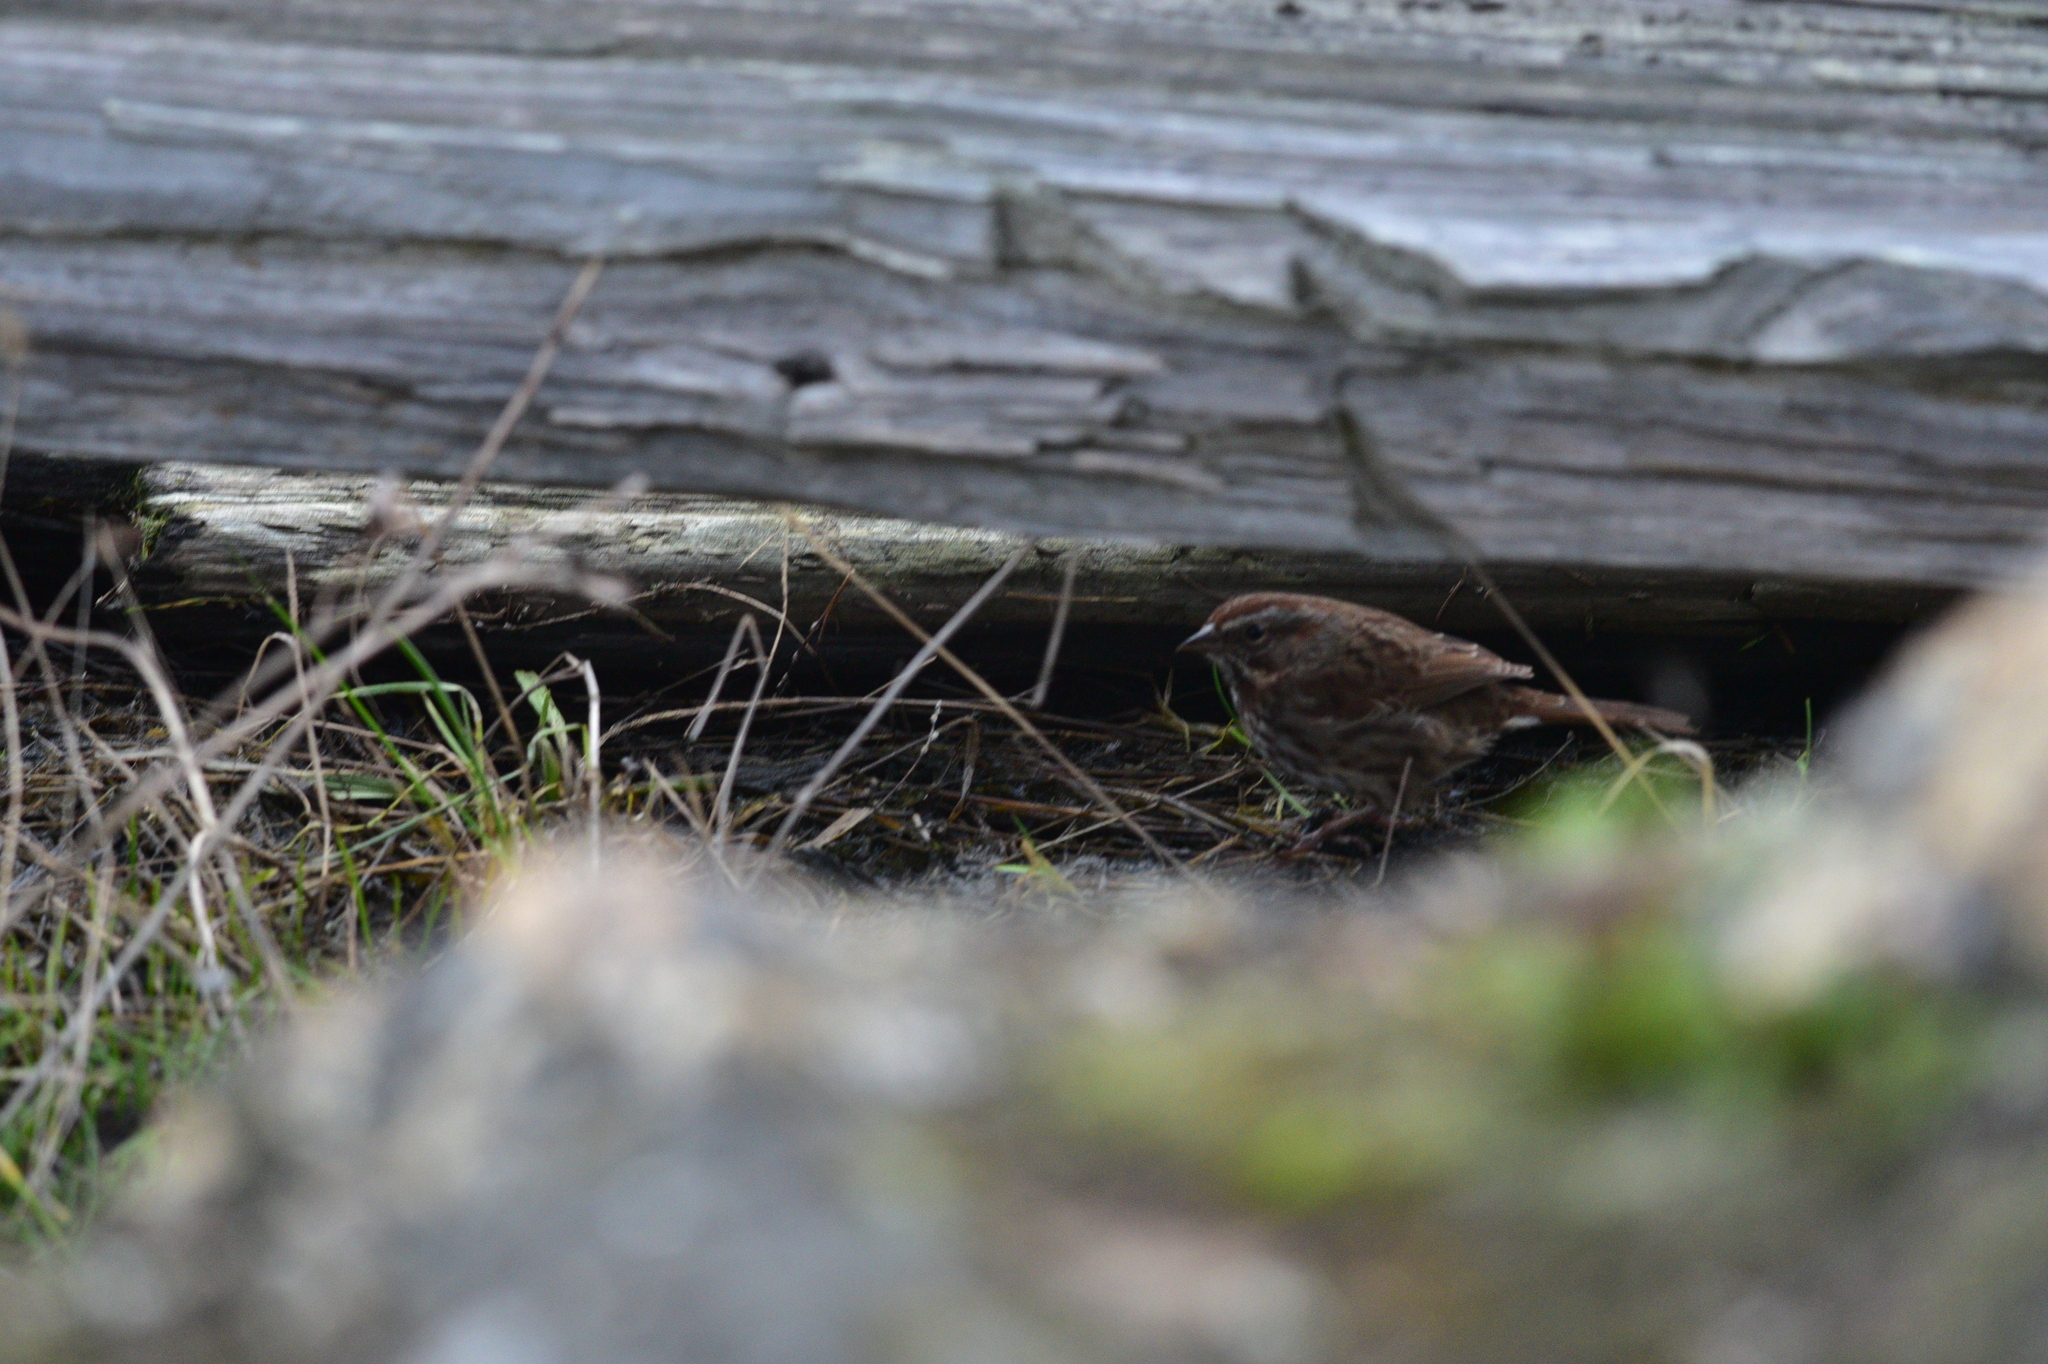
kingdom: Animalia
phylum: Chordata
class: Aves
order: Passeriformes
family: Passerellidae
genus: Melospiza
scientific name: Melospiza melodia
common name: Song sparrow
